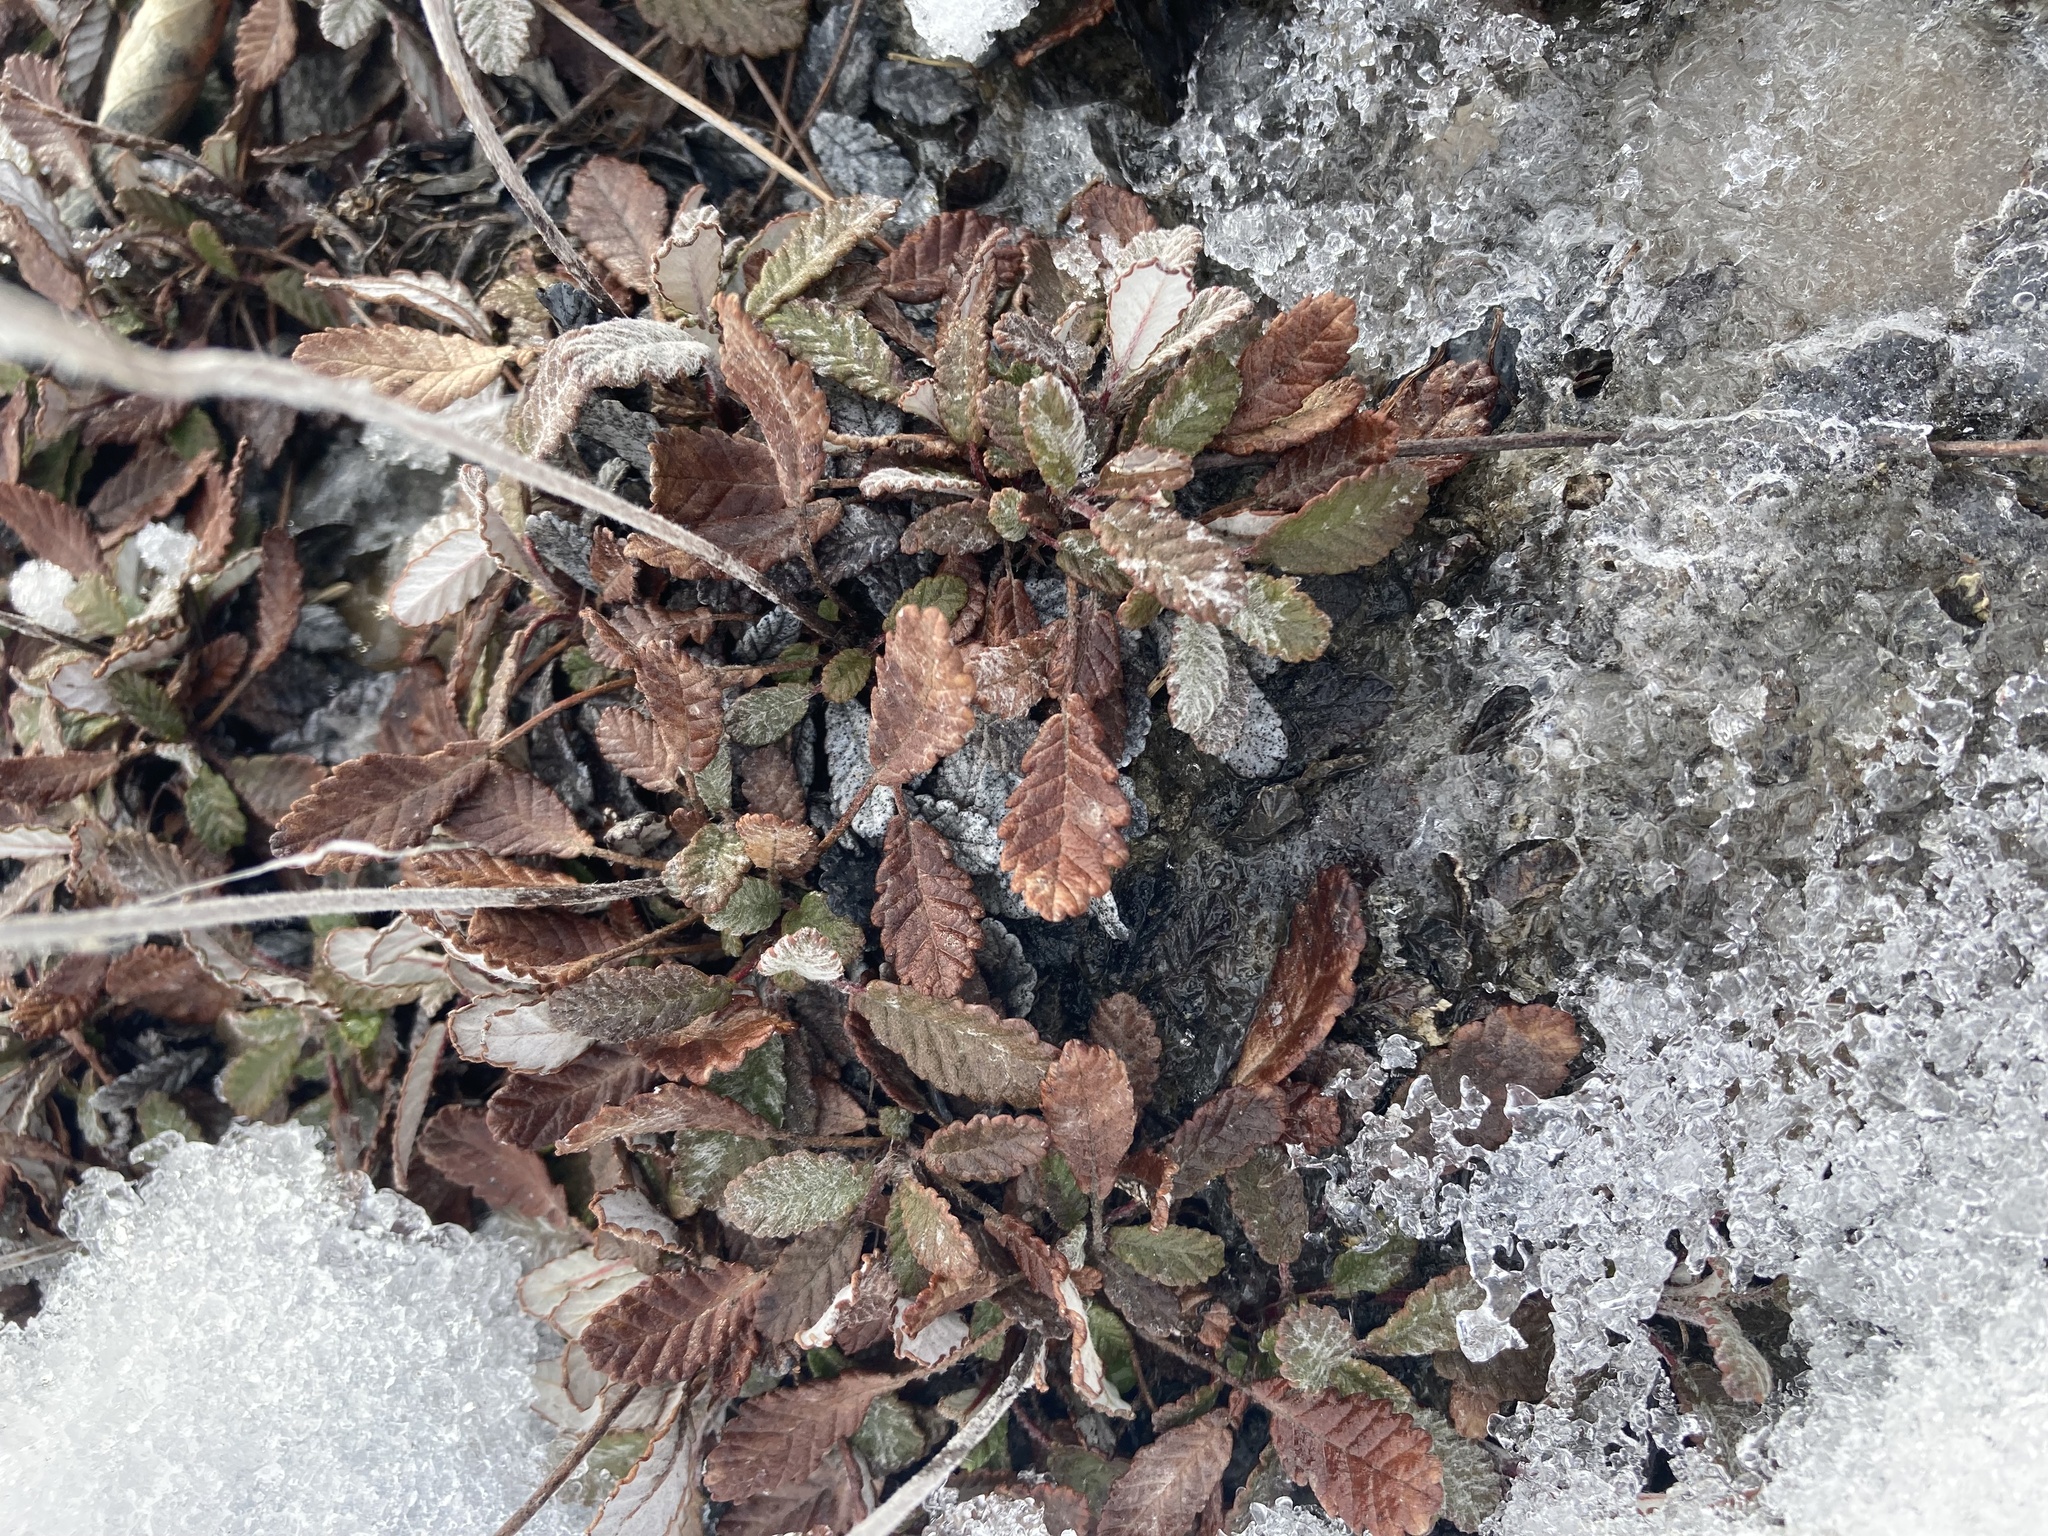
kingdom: Plantae
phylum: Tracheophyta
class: Magnoliopsida
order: Rosales
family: Rosaceae
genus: Dryas
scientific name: Dryas drummondii
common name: Drummond's dryad
